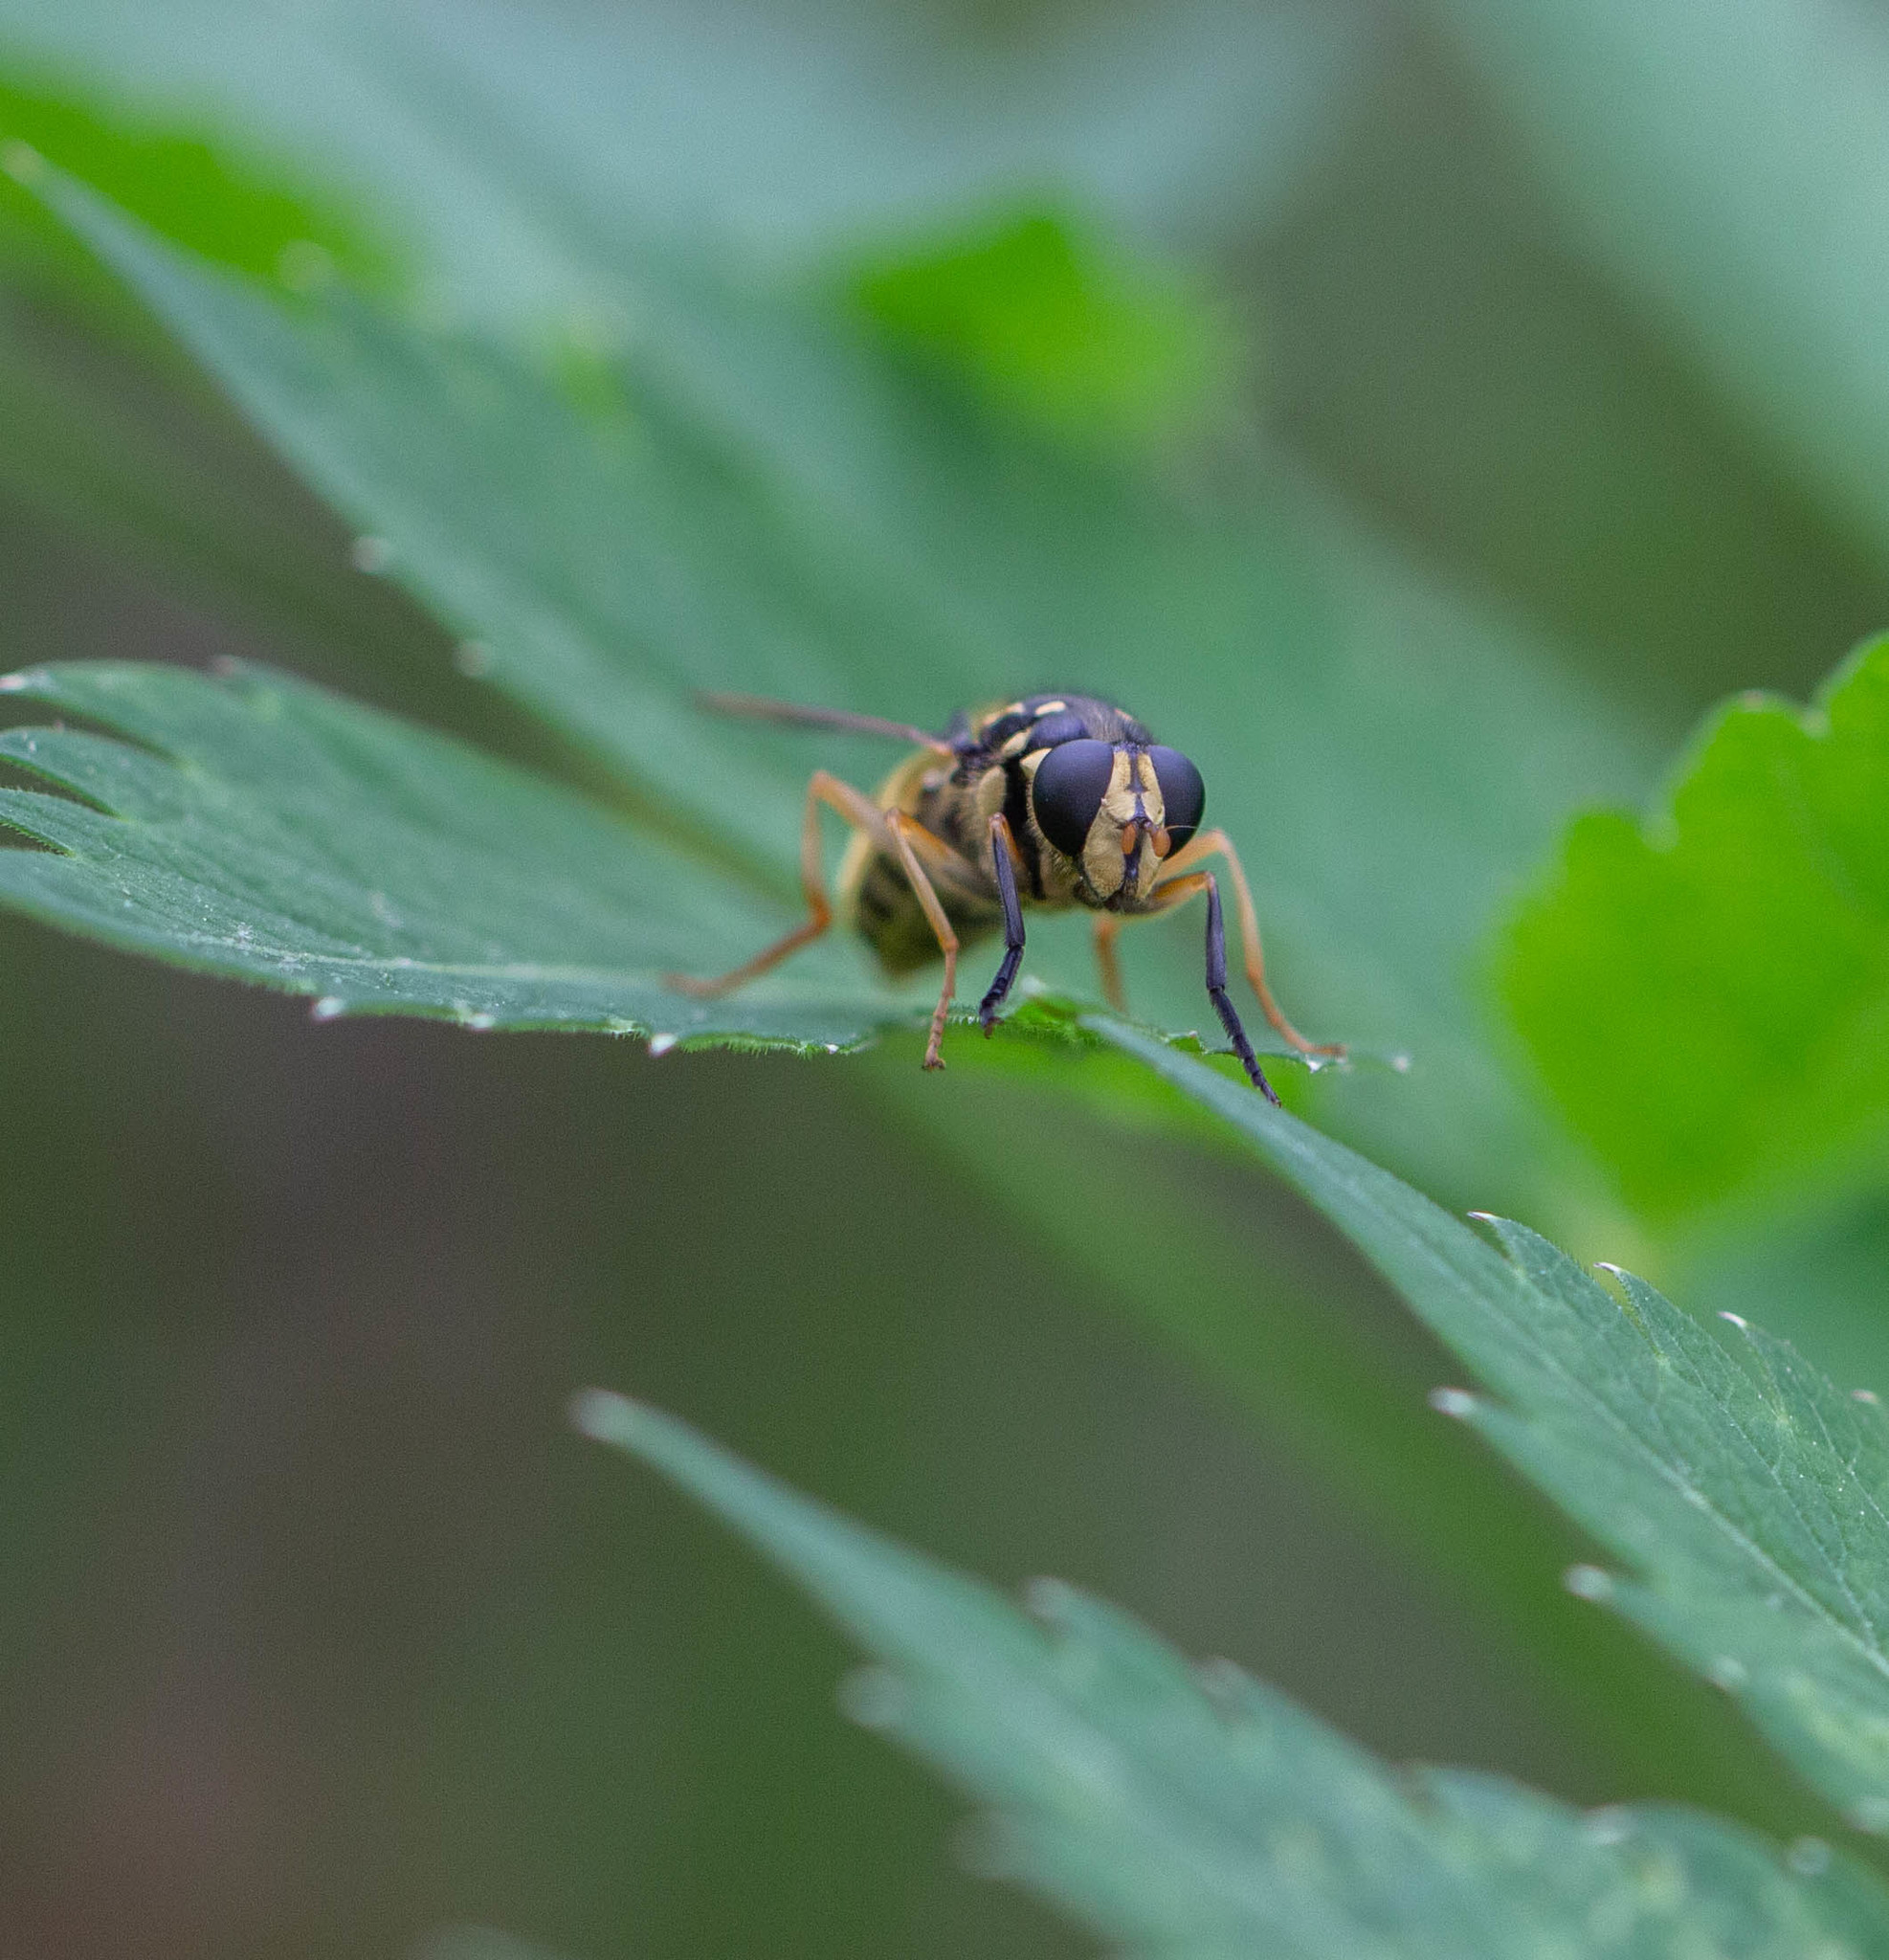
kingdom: Animalia
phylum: Arthropoda
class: Insecta
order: Diptera
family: Syrphidae
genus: Temnostoma
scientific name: Temnostoma alternans
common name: Wasp-like falsehorn
